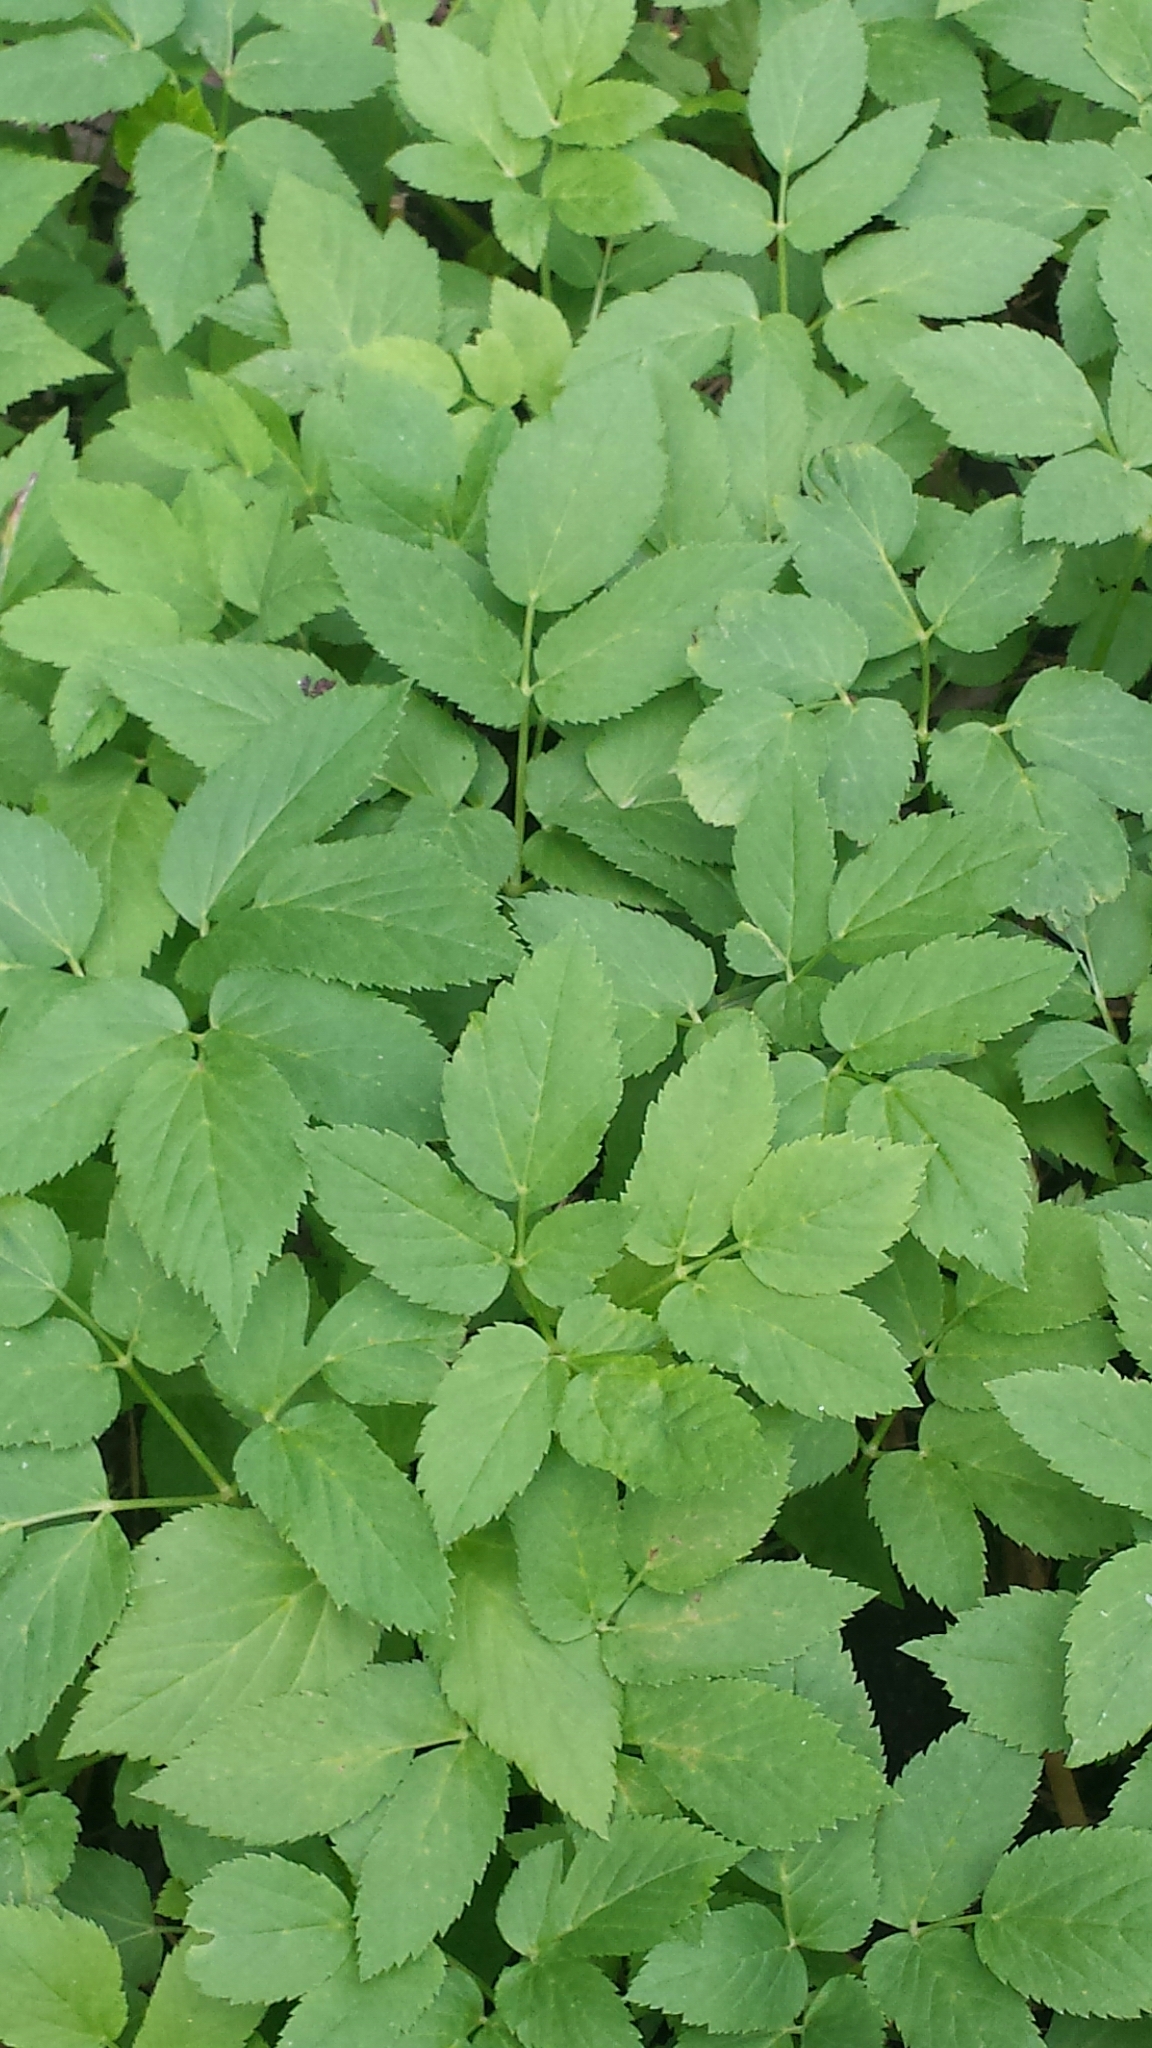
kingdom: Plantae
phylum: Tracheophyta
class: Magnoliopsida
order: Apiales
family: Apiaceae
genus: Aegopodium
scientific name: Aegopodium podagraria
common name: Ground-elder
